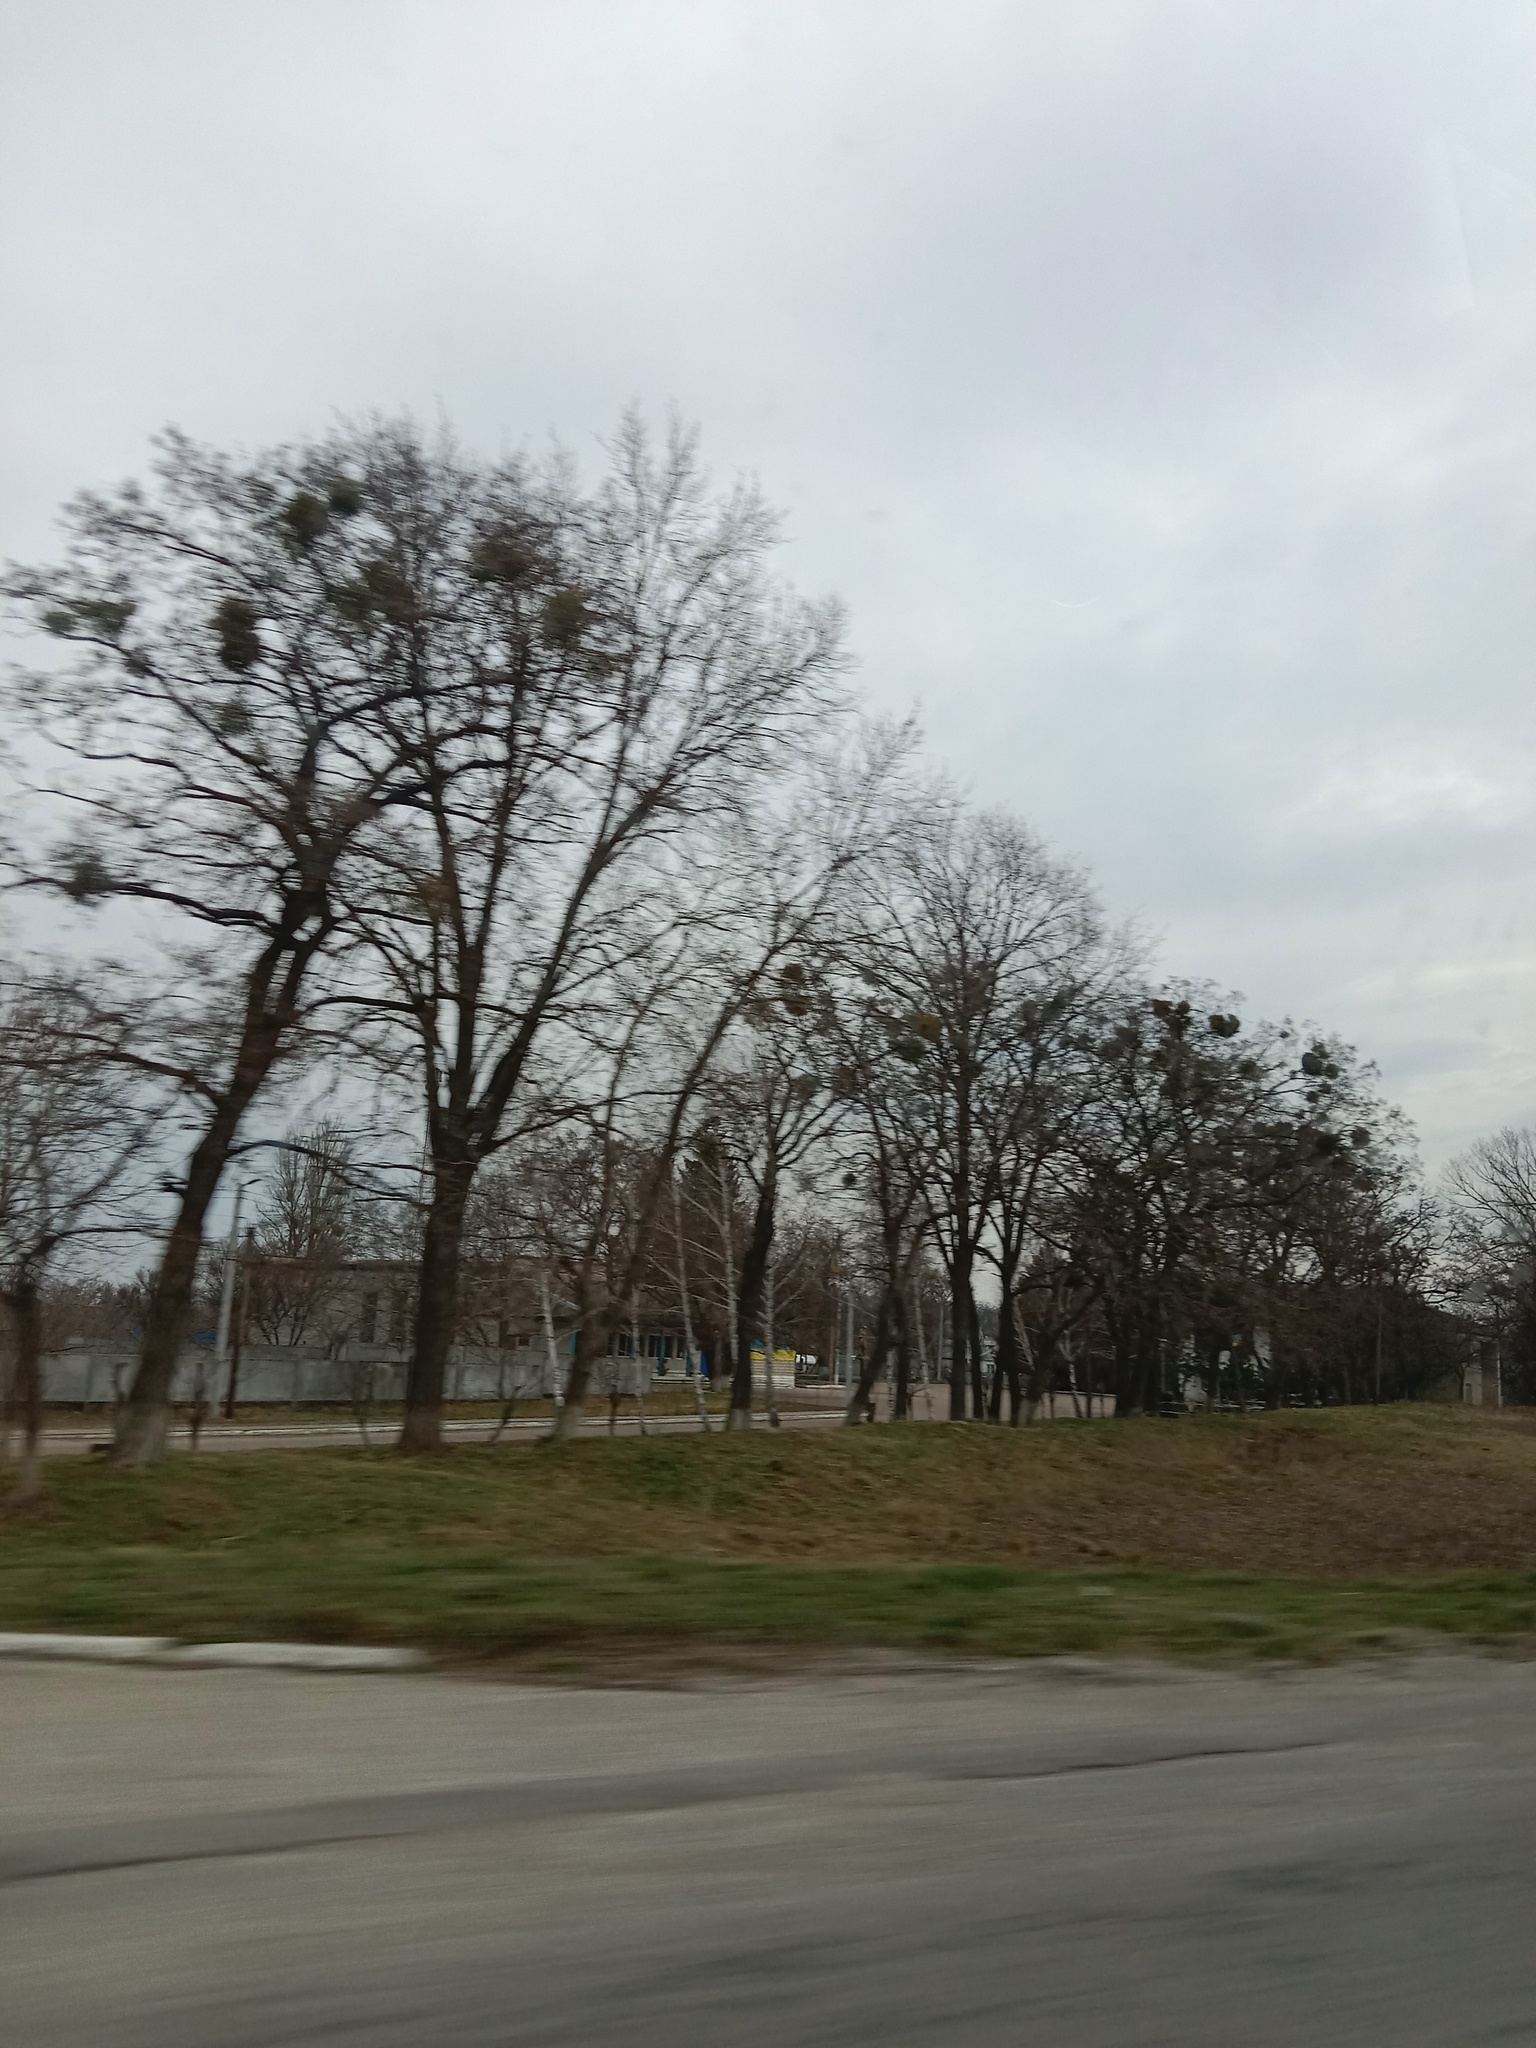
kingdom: Plantae
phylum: Tracheophyta
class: Magnoliopsida
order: Santalales
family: Viscaceae
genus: Viscum
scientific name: Viscum album
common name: Mistletoe
